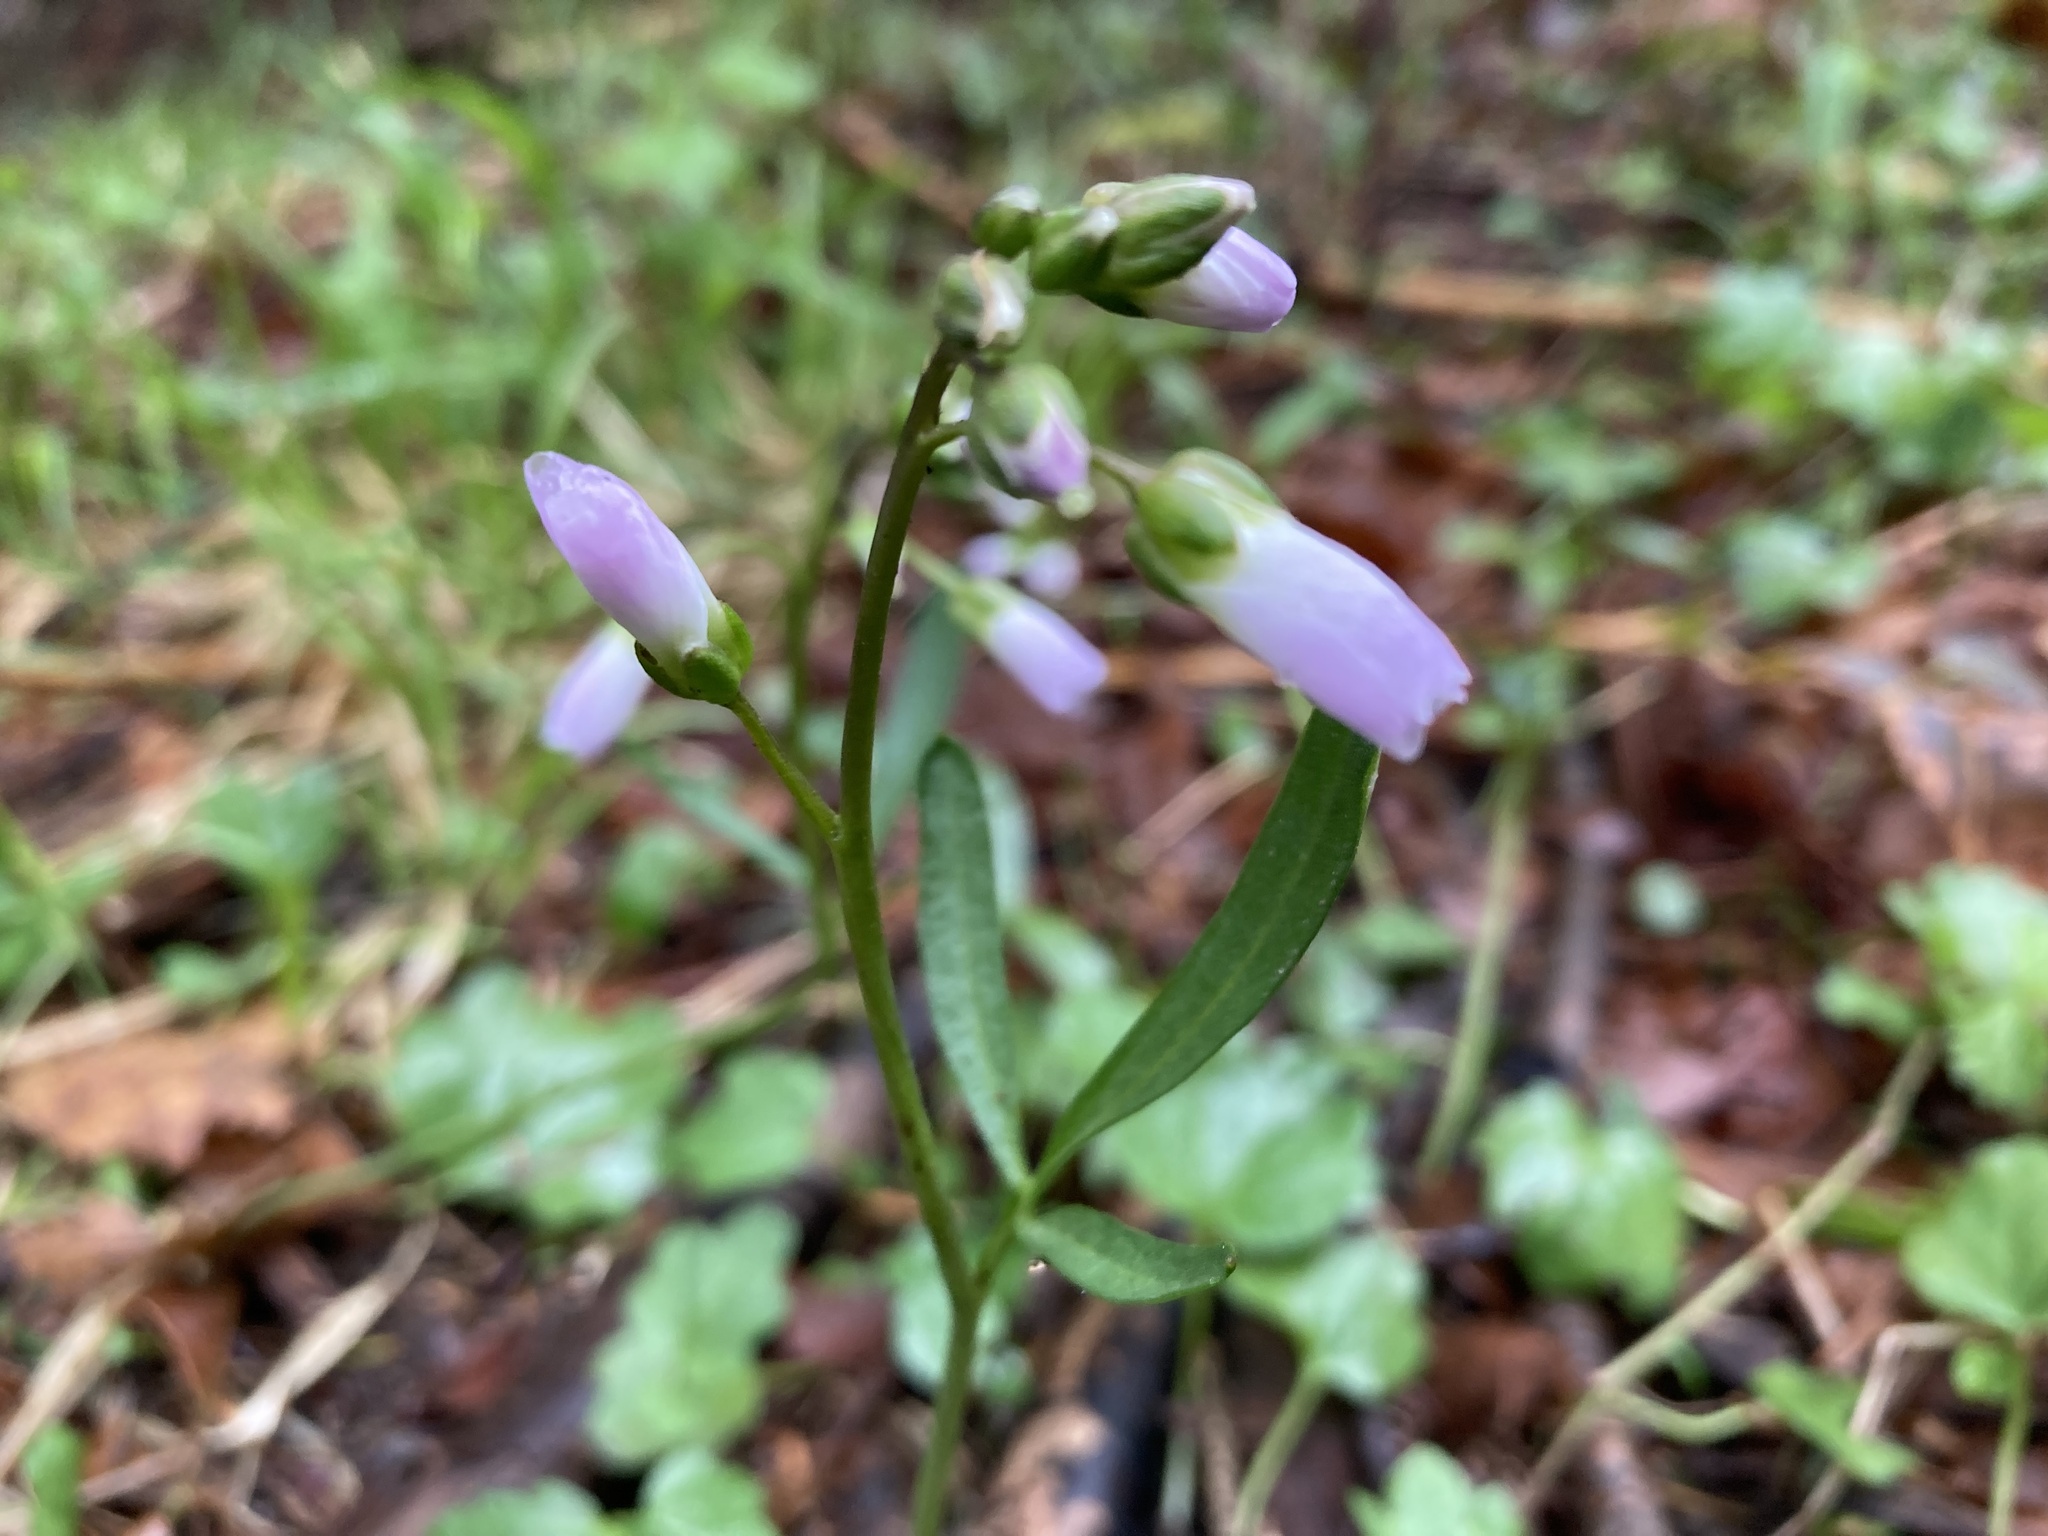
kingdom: Plantae
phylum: Tracheophyta
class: Magnoliopsida
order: Brassicales
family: Brassicaceae
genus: Cardamine
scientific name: Cardamine nuttallii
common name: Nuttall's toothwort
